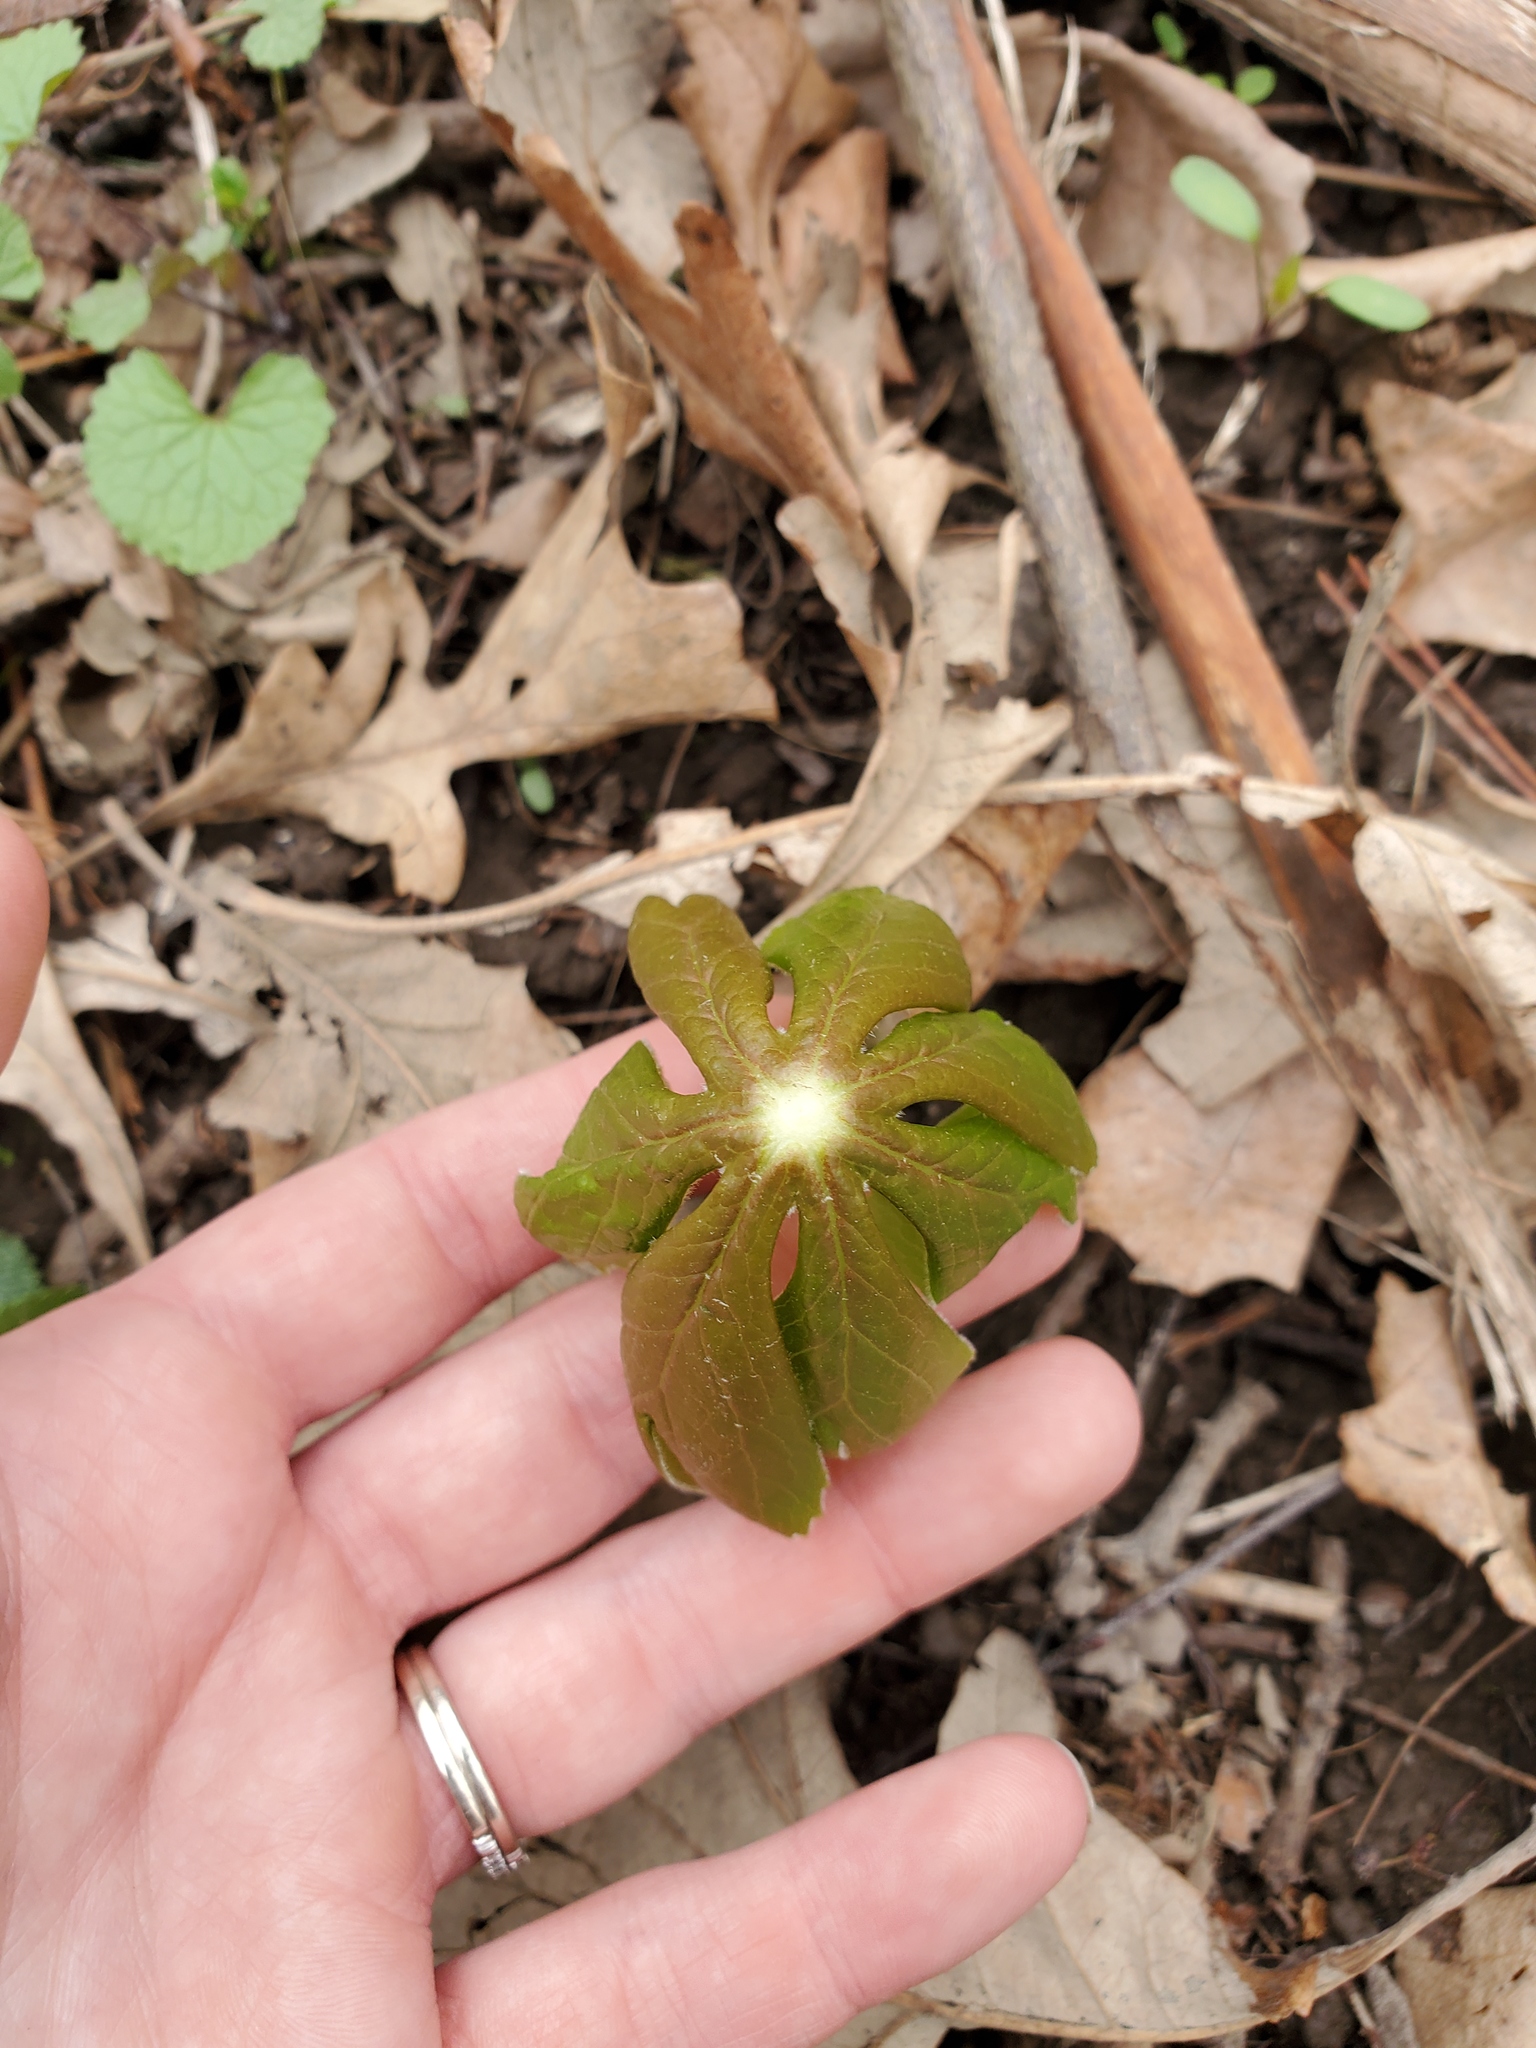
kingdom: Plantae
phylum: Tracheophyta
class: Magnoliopsida
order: Ranunculales
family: Berberidaceae
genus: Podophyllum
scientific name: Podophyllum peltatum
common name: Wild mandrake
